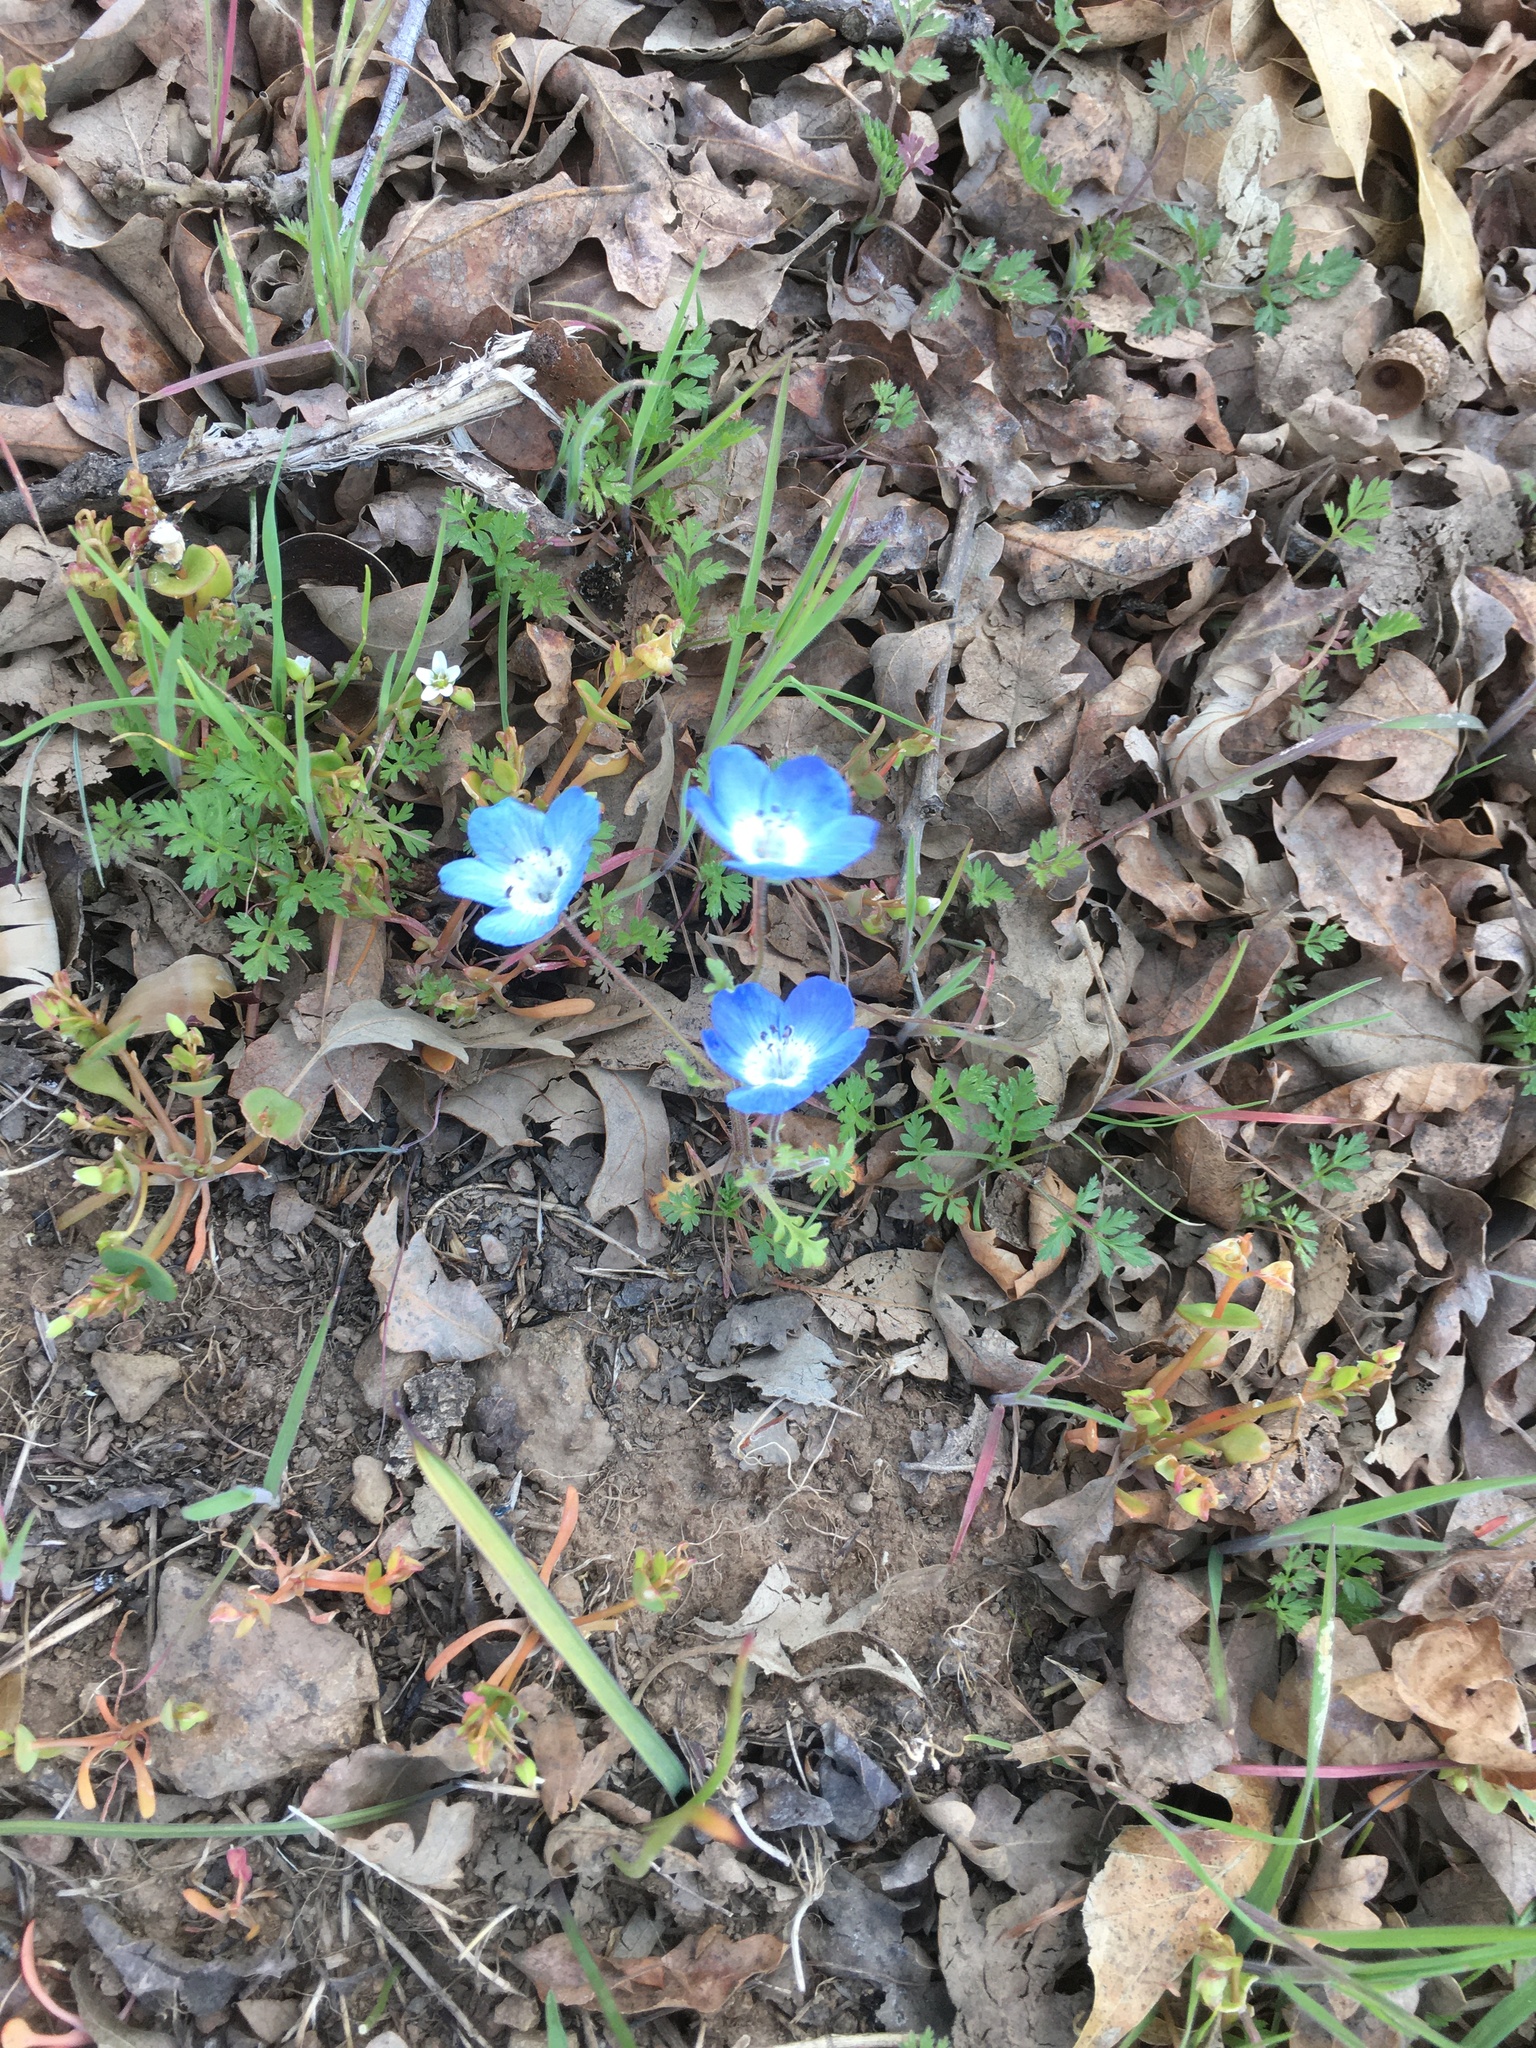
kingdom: Plantae
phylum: Tracheophyta
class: Magnoliopsida
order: Boraginales
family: Hydrophyllaceae
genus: Nemophila
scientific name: Nemophila menziesii
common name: Baby's-blue-eyes
